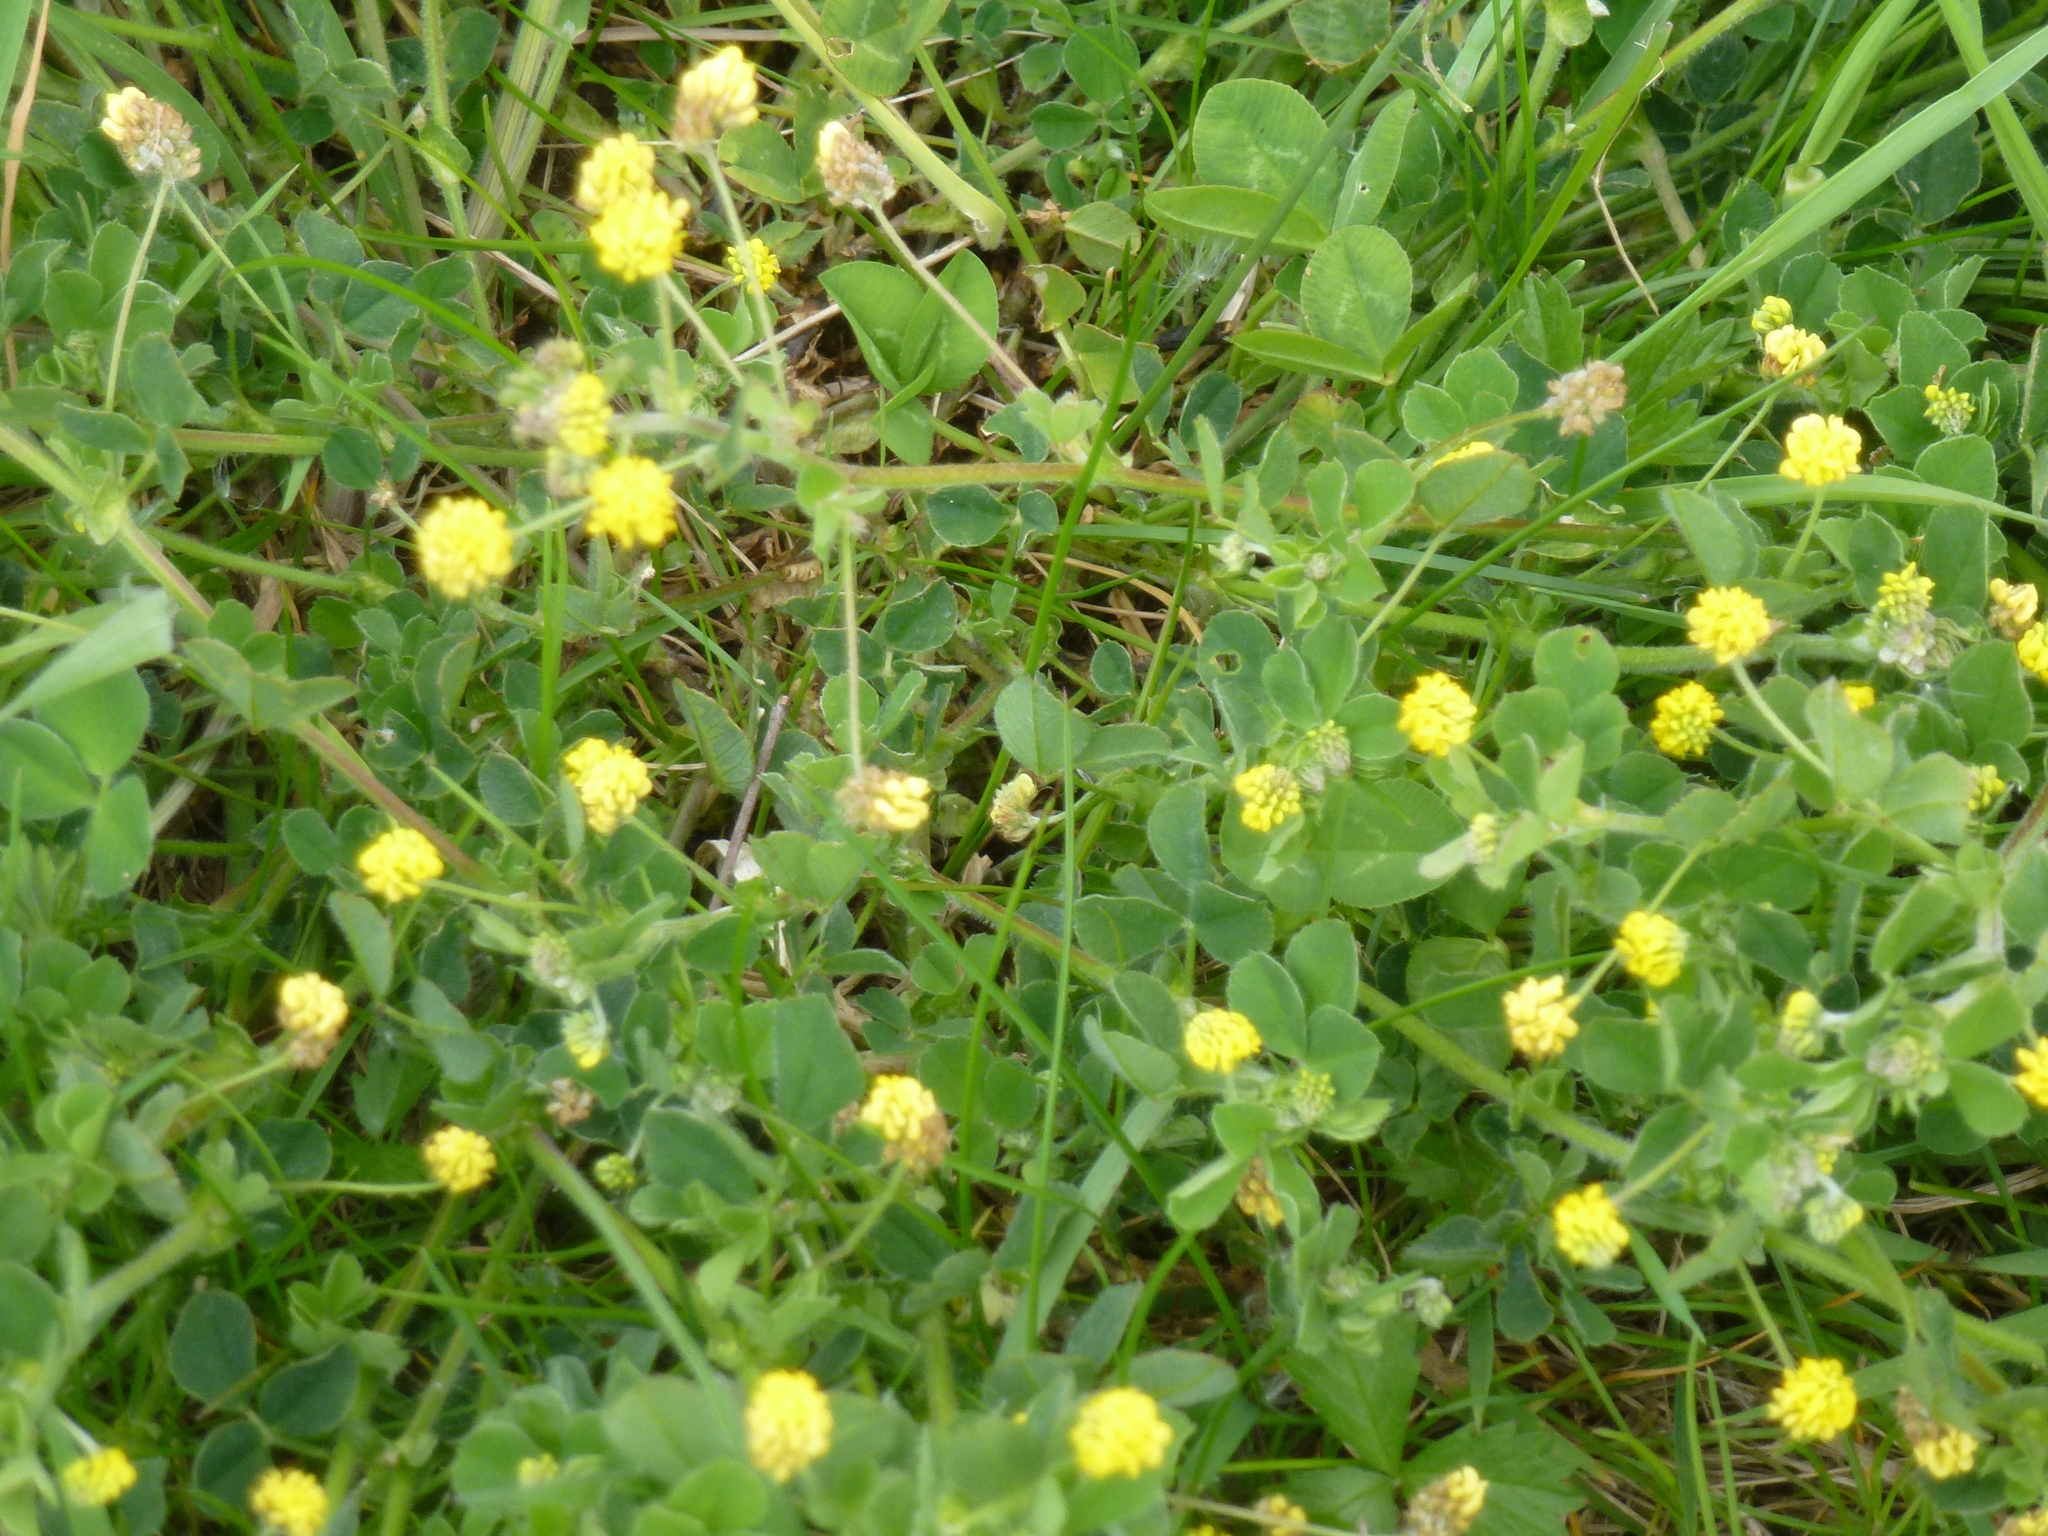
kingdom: Plantae
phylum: Tracheophyta
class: Magnoliopsida
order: Fabales
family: Fabaceae
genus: Medicago
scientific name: Medicago lupulina
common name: Black medick
